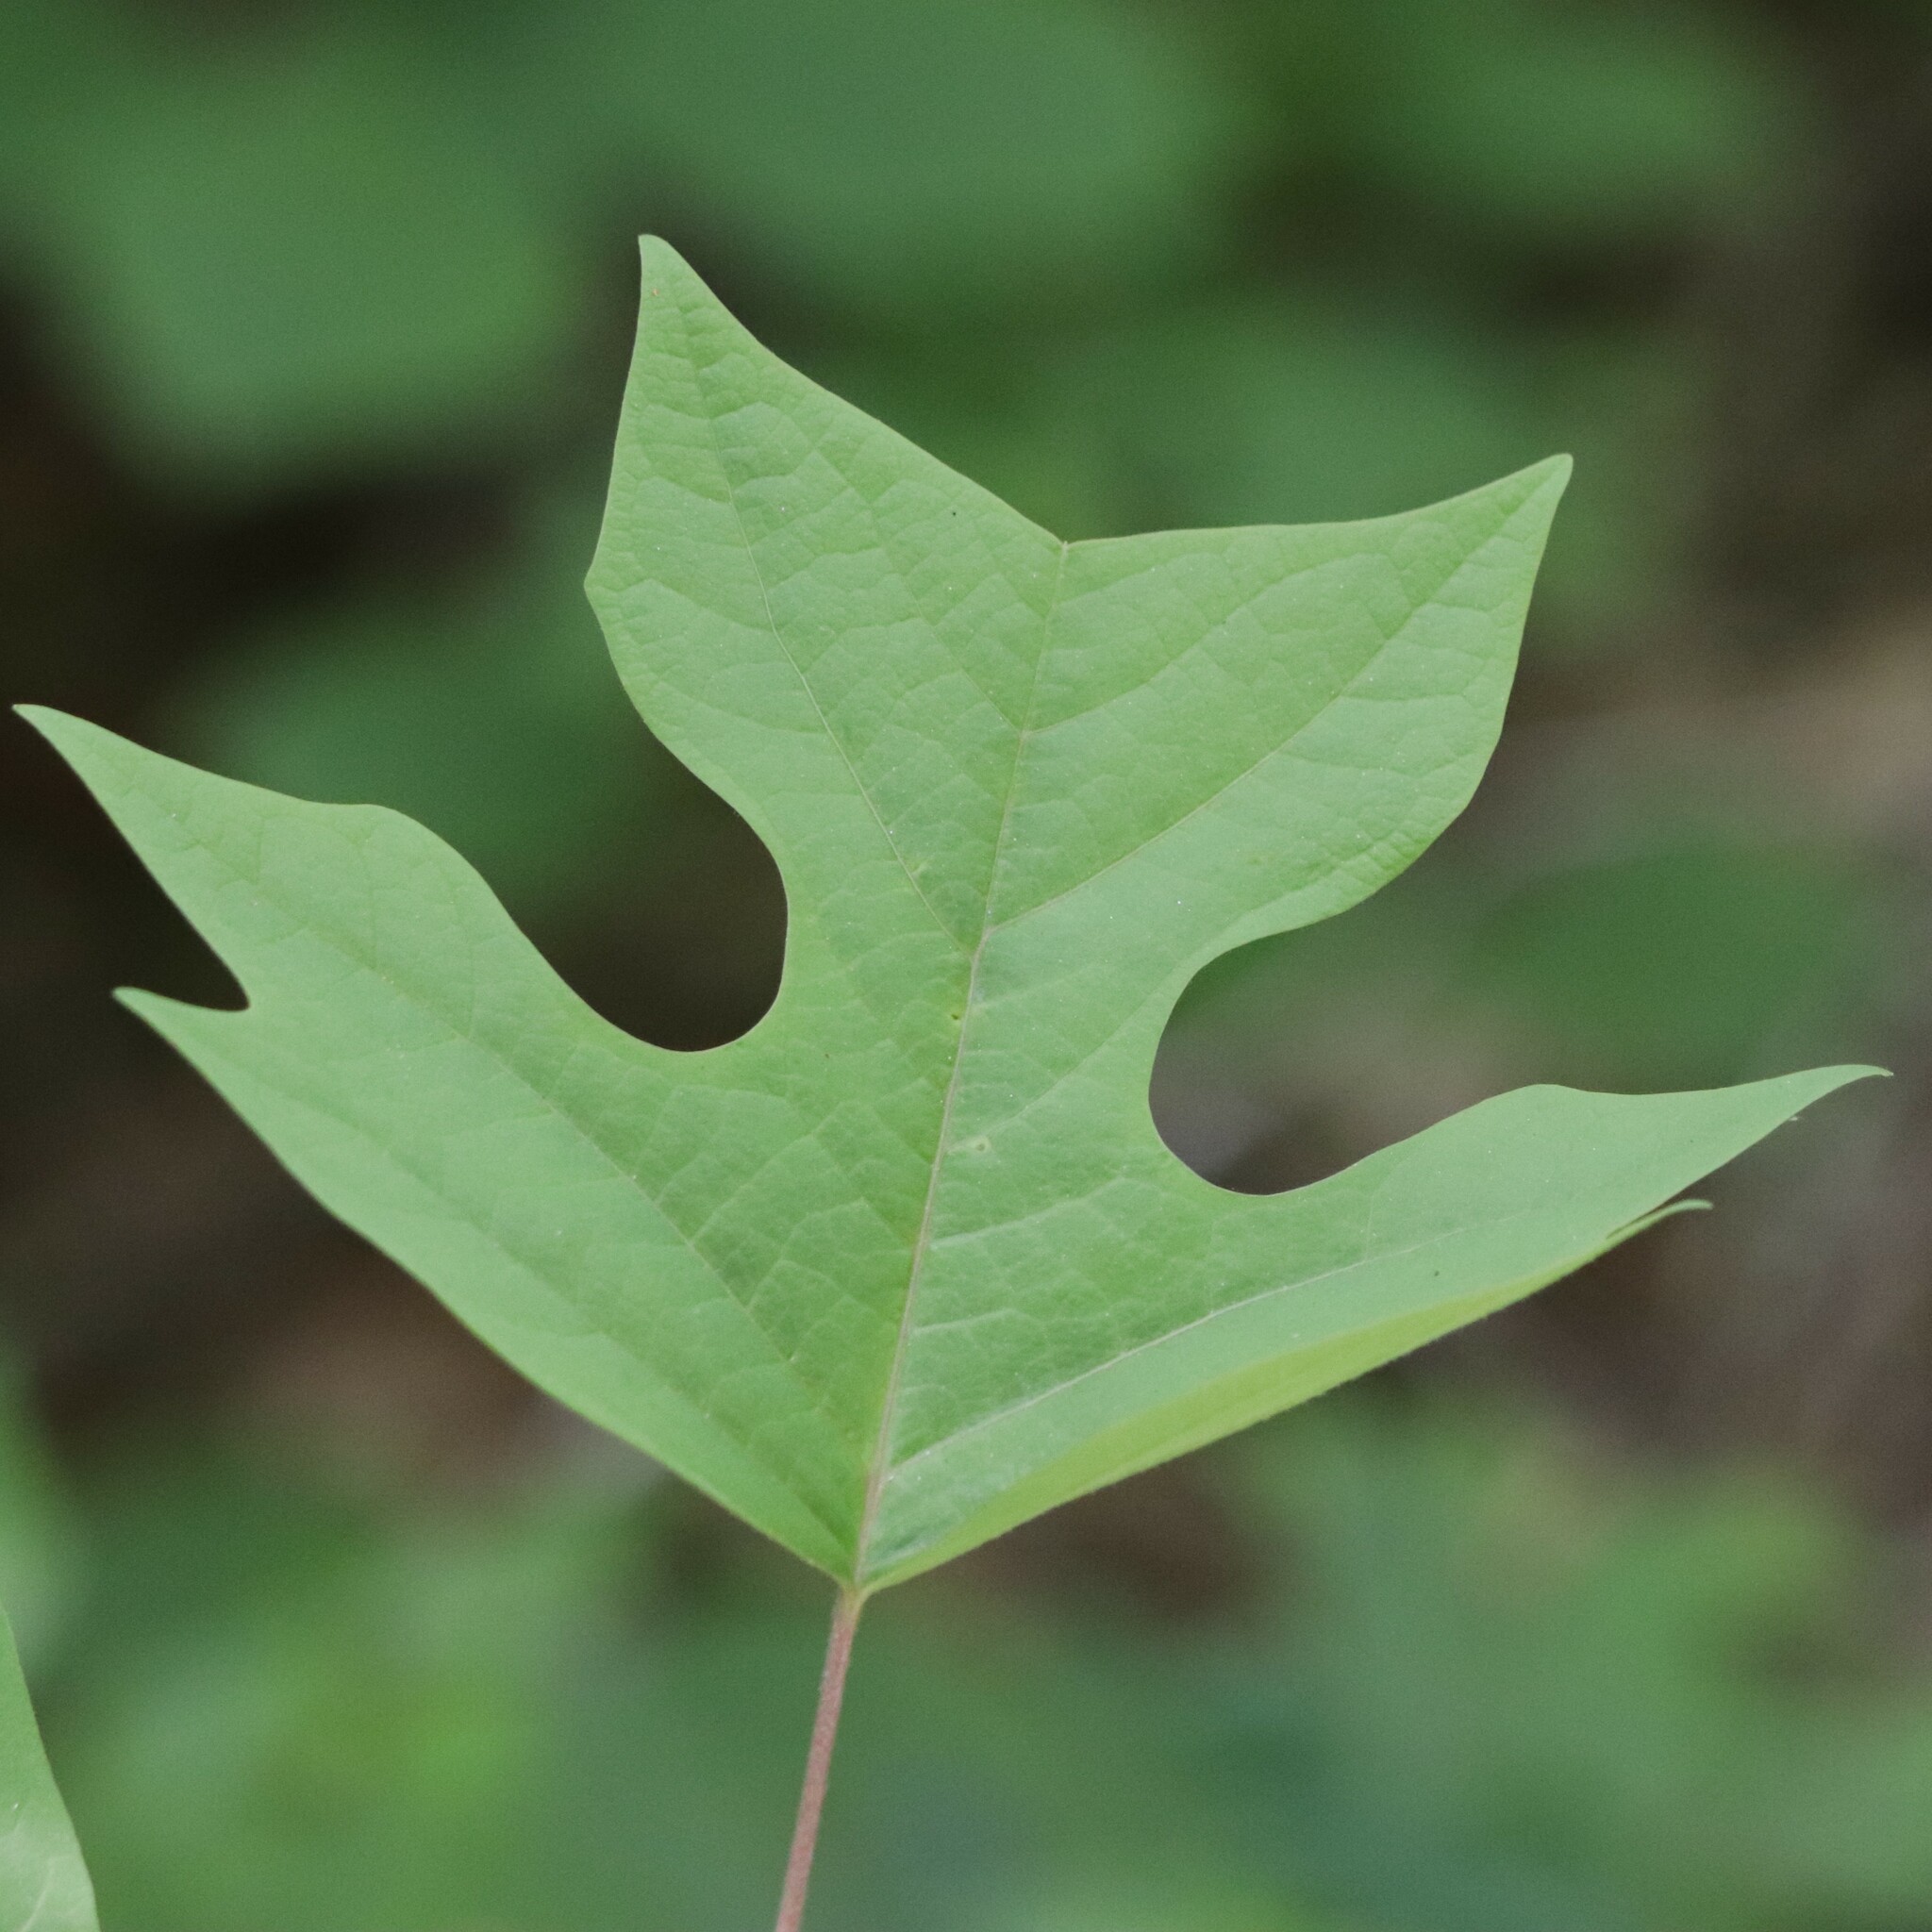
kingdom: Plantae
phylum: Tracheophyta
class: Magnoliopsida
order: Magnoliales
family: Magnoliaceae
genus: Liriodendron
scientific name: Liriodendron tulipifera
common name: Tulip tree
